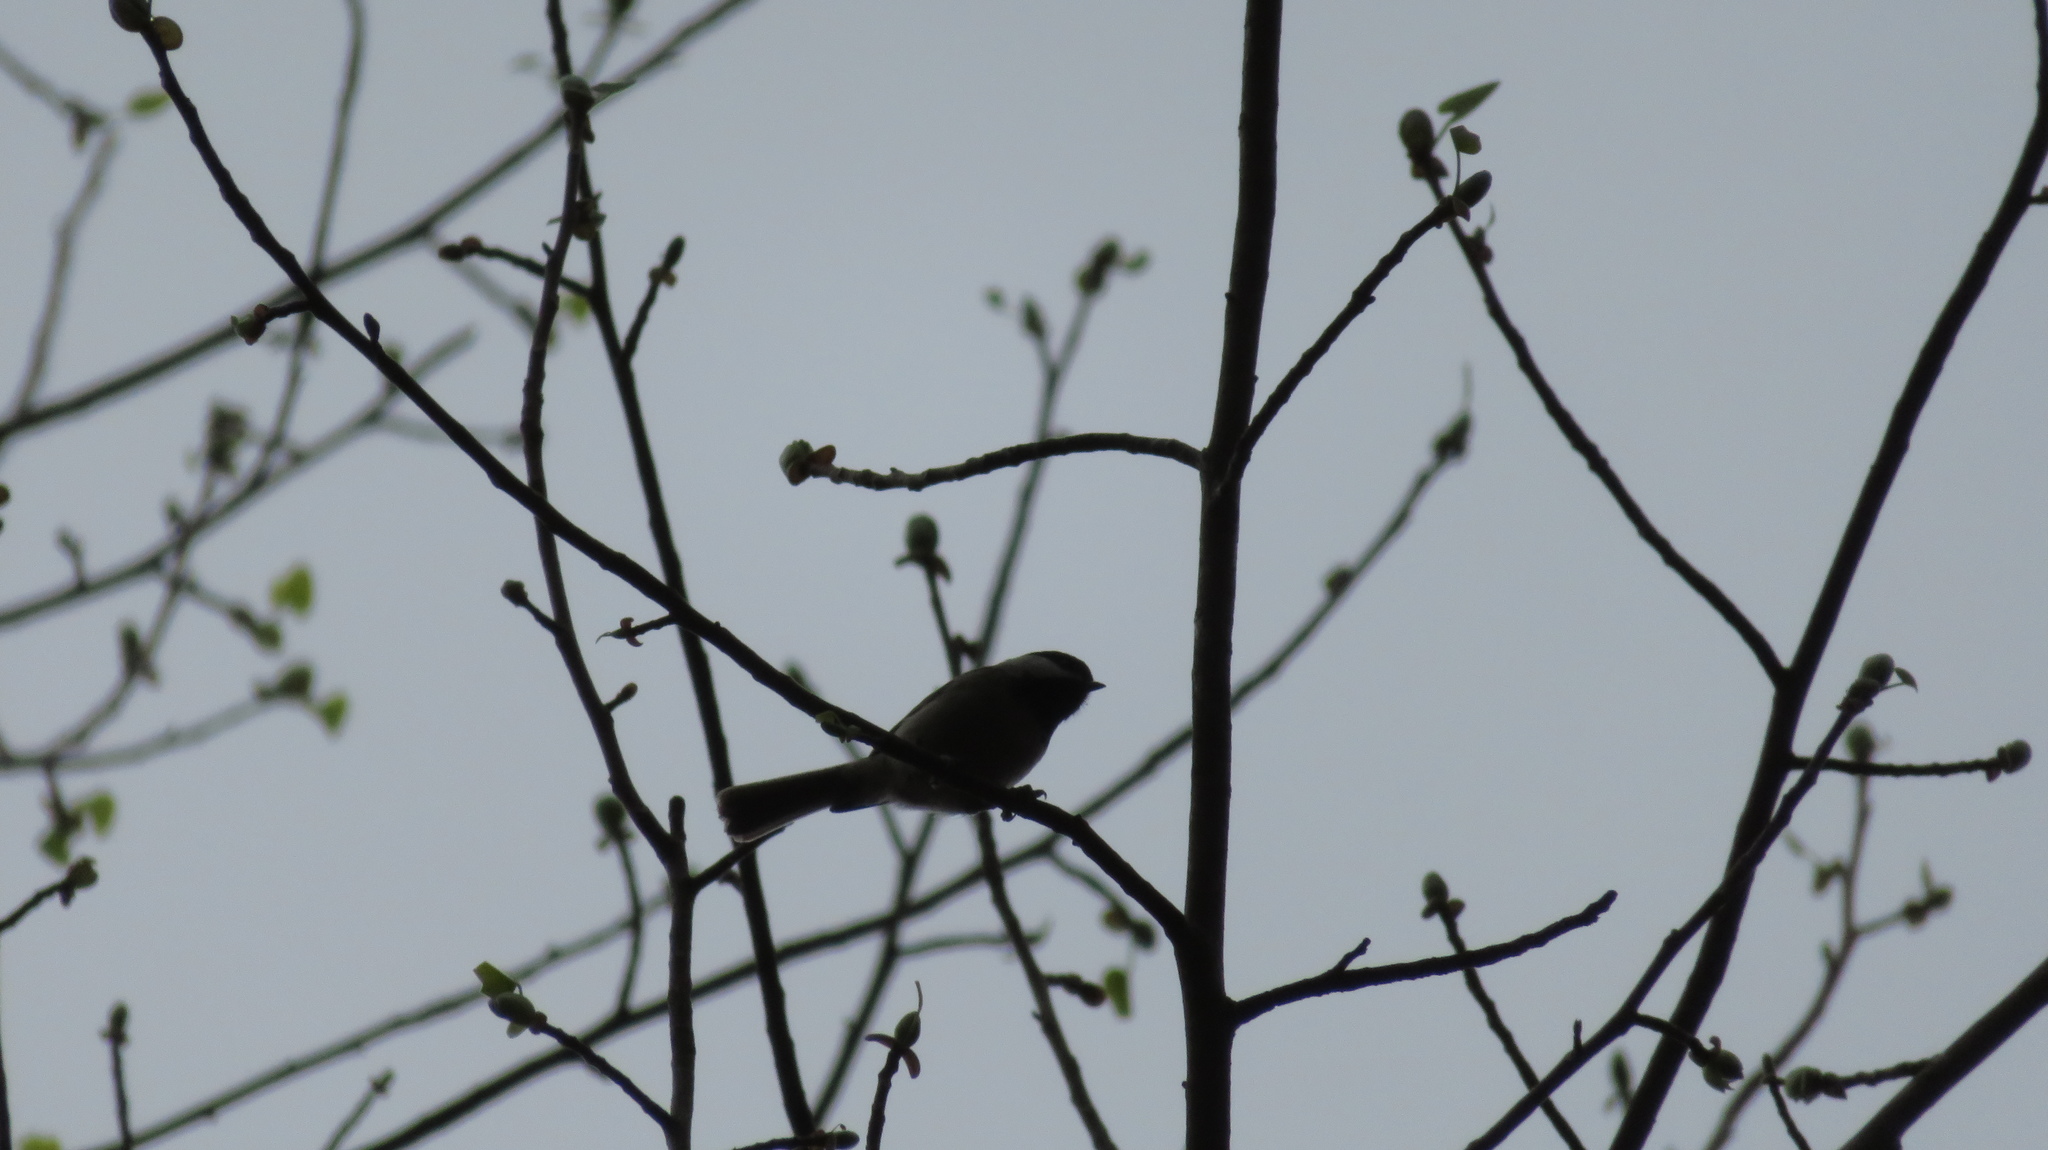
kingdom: Animalia
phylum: Chordata
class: Aves
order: Passeriformes
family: Paridae
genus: Poecile
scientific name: Poecile carolinensis
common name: Carolina chickadee
